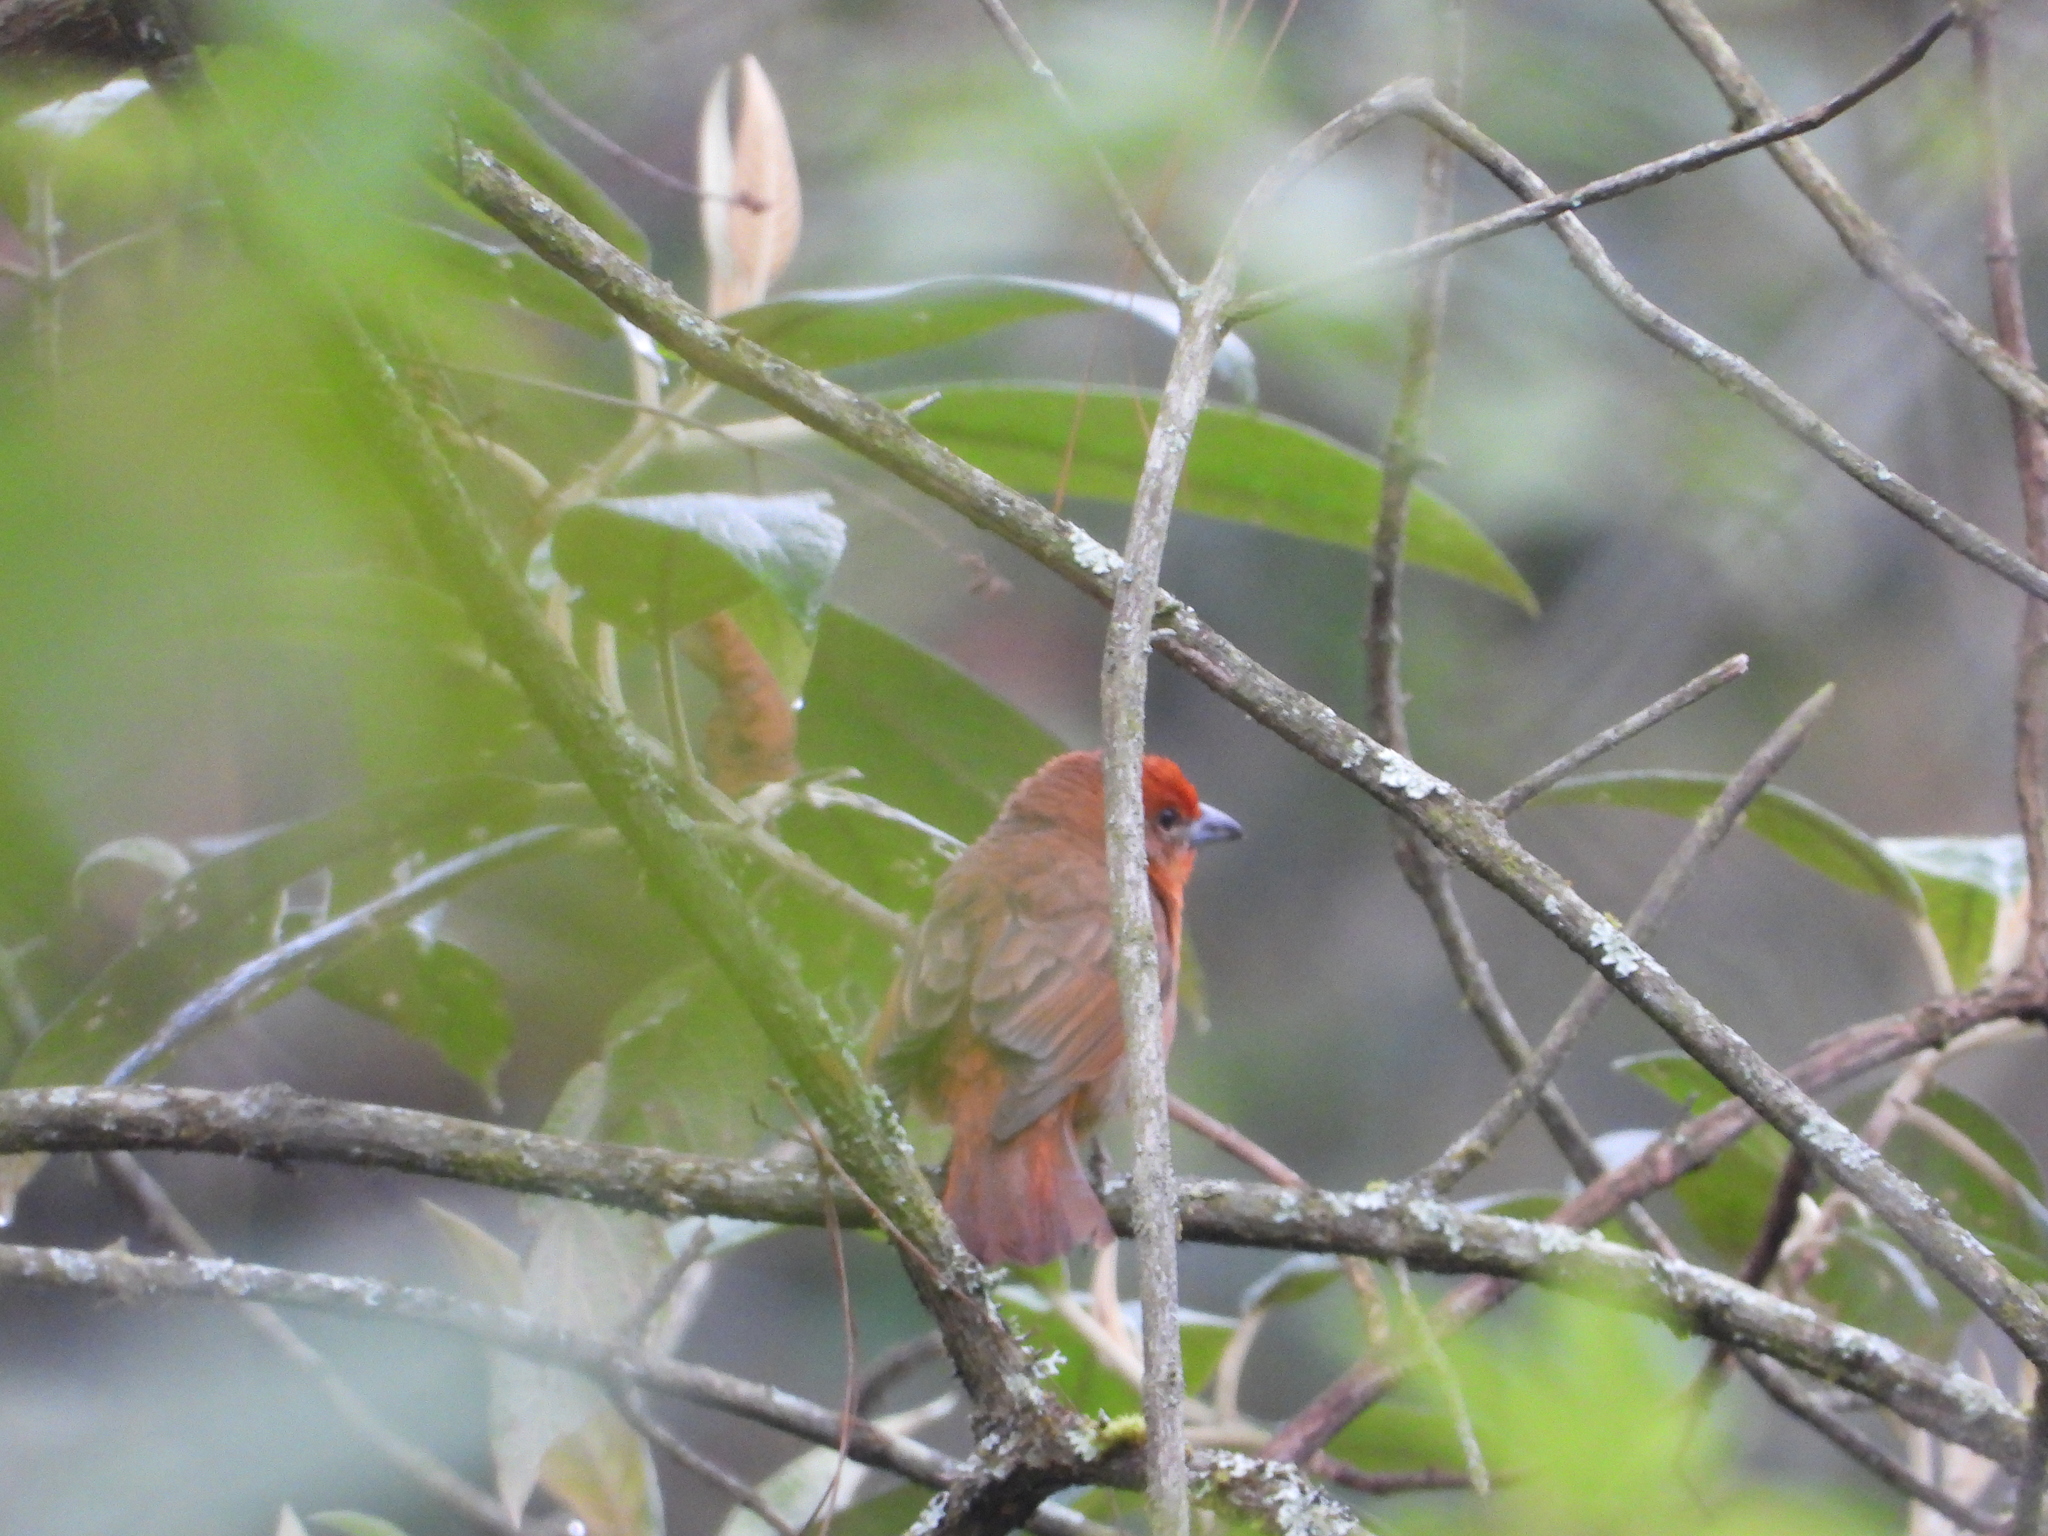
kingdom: Animalia
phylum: Chordata
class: Aves
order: Passeriformes
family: Cardinalidae
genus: Piranga
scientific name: Piranga flava
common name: Red tanager
